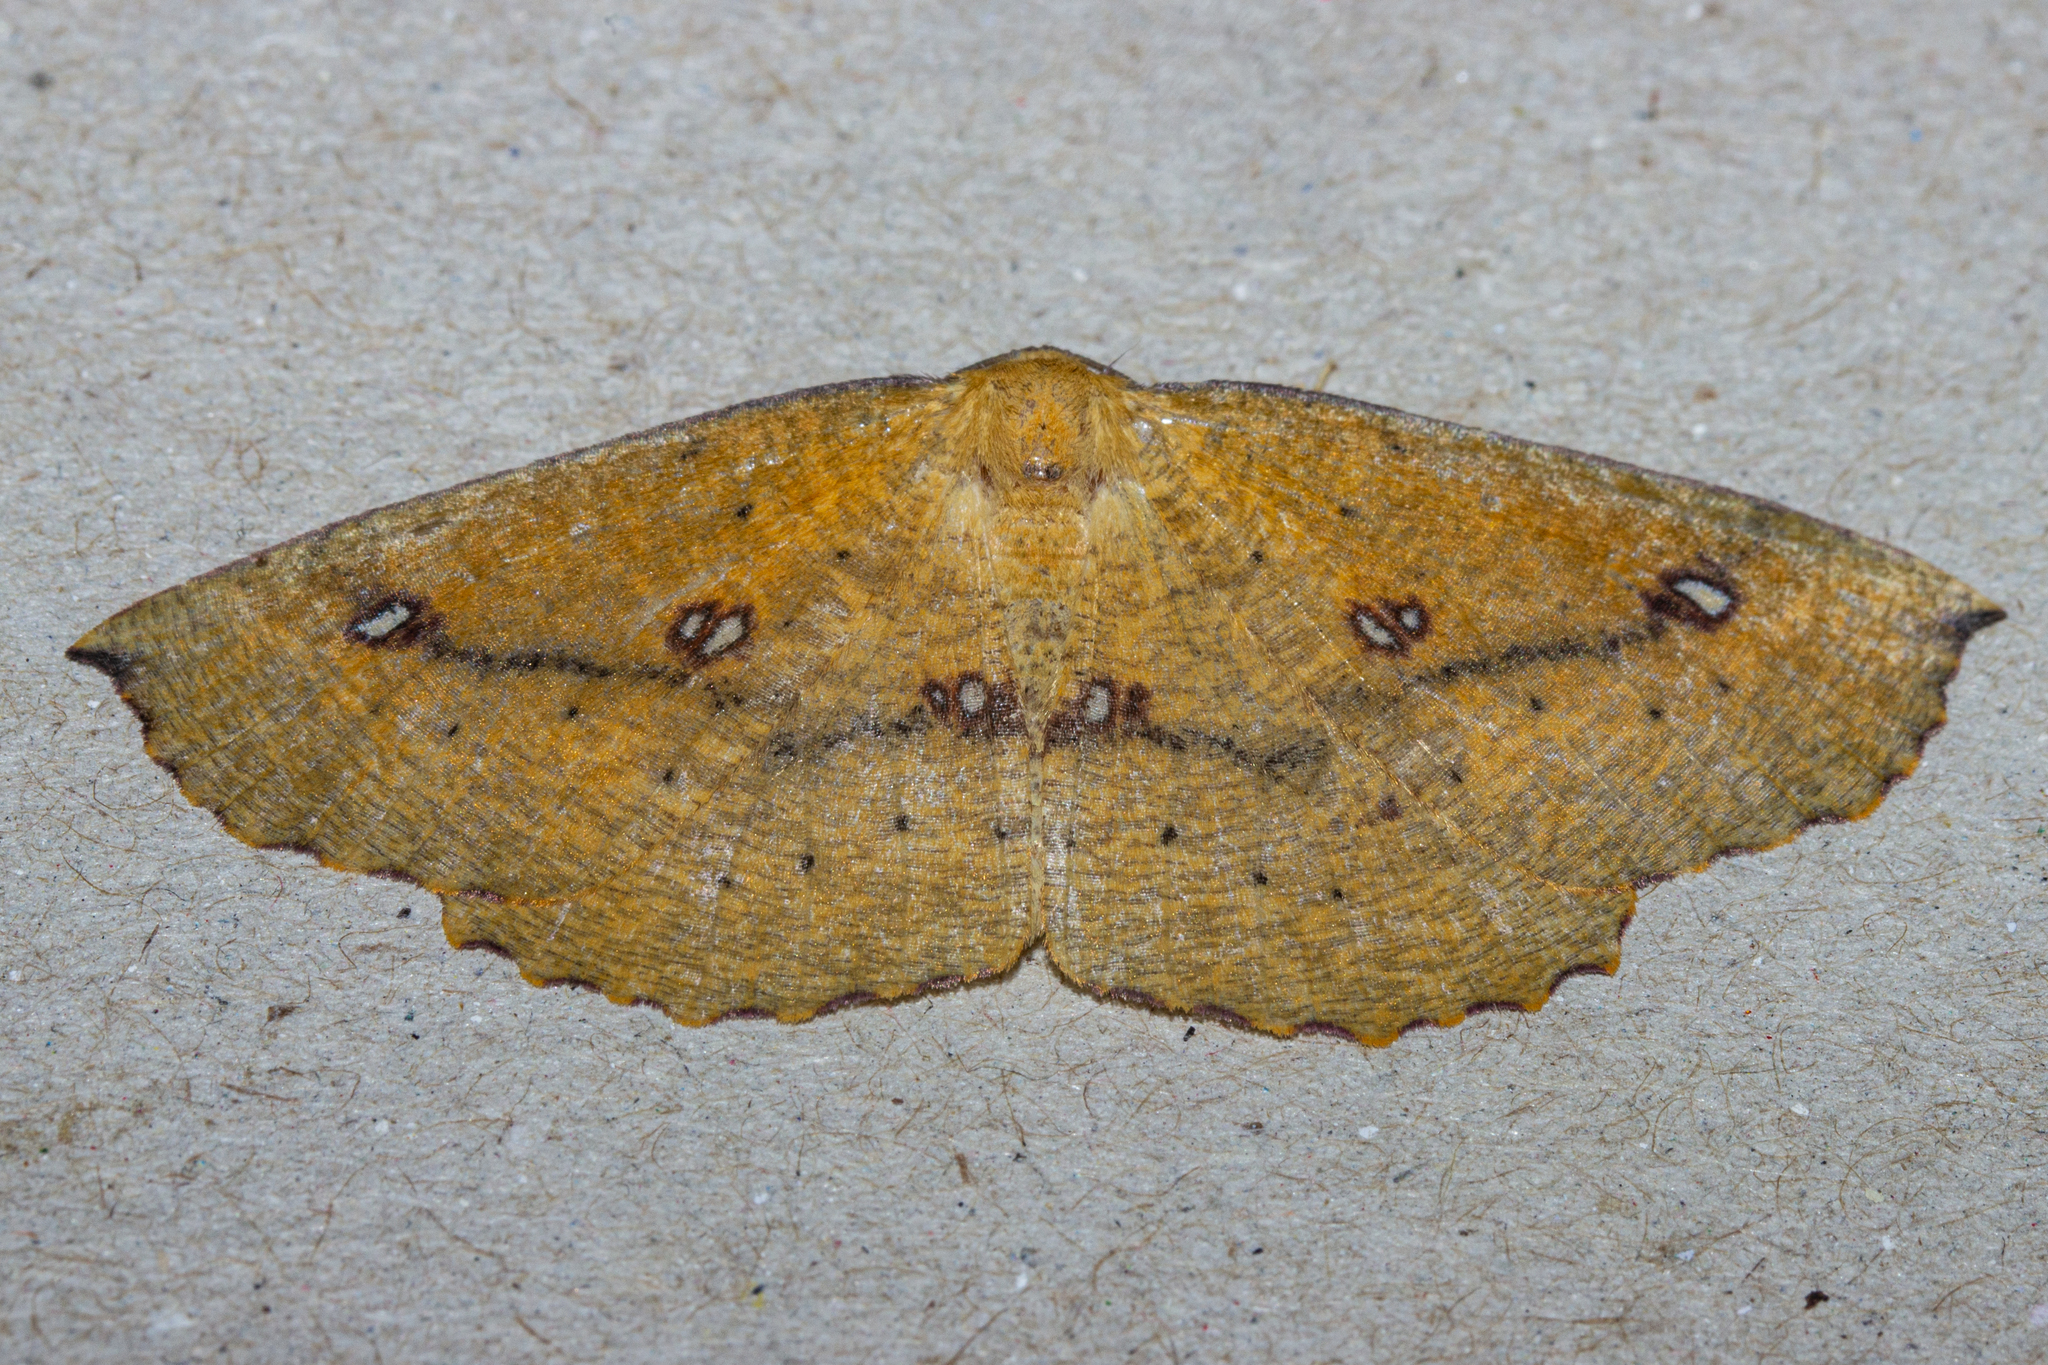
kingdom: Animalia
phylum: Arthropoda
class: Insecta
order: Lepidoptera
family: Geometridae
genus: Xyridacma
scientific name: Xyridacma alectoraria
